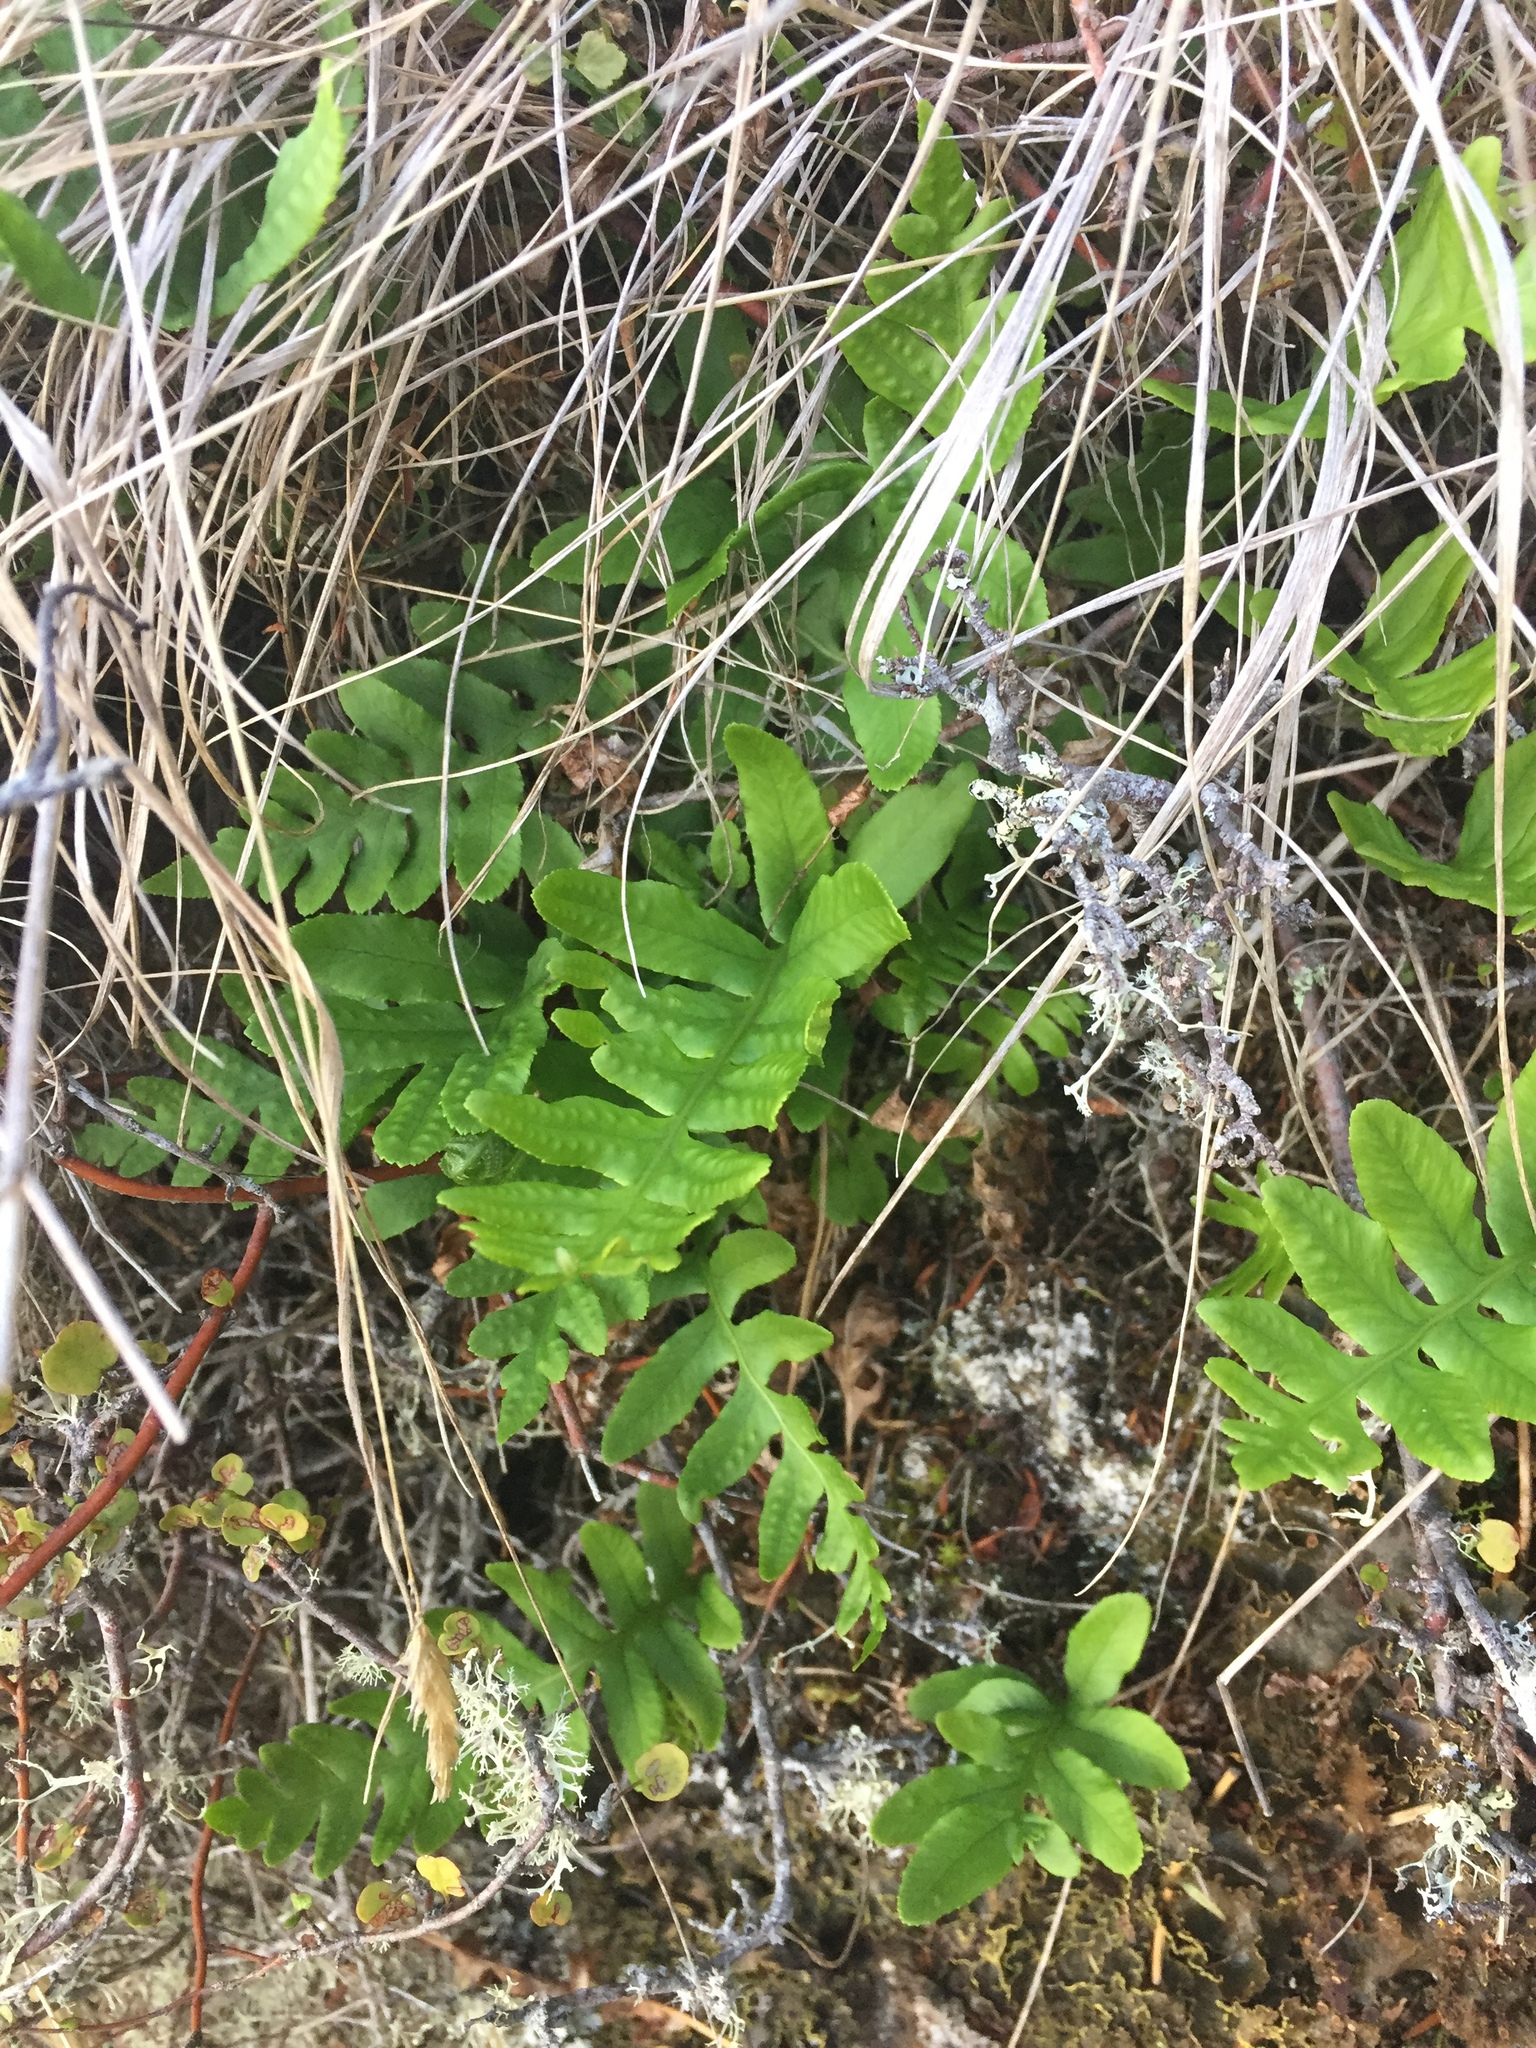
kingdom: Plantae
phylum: Tracheophyta
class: Polypodiopsida
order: Polypodiales
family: Polypodiaceae
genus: Polypodium
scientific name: Polypodium vulgare
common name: Common polypody
